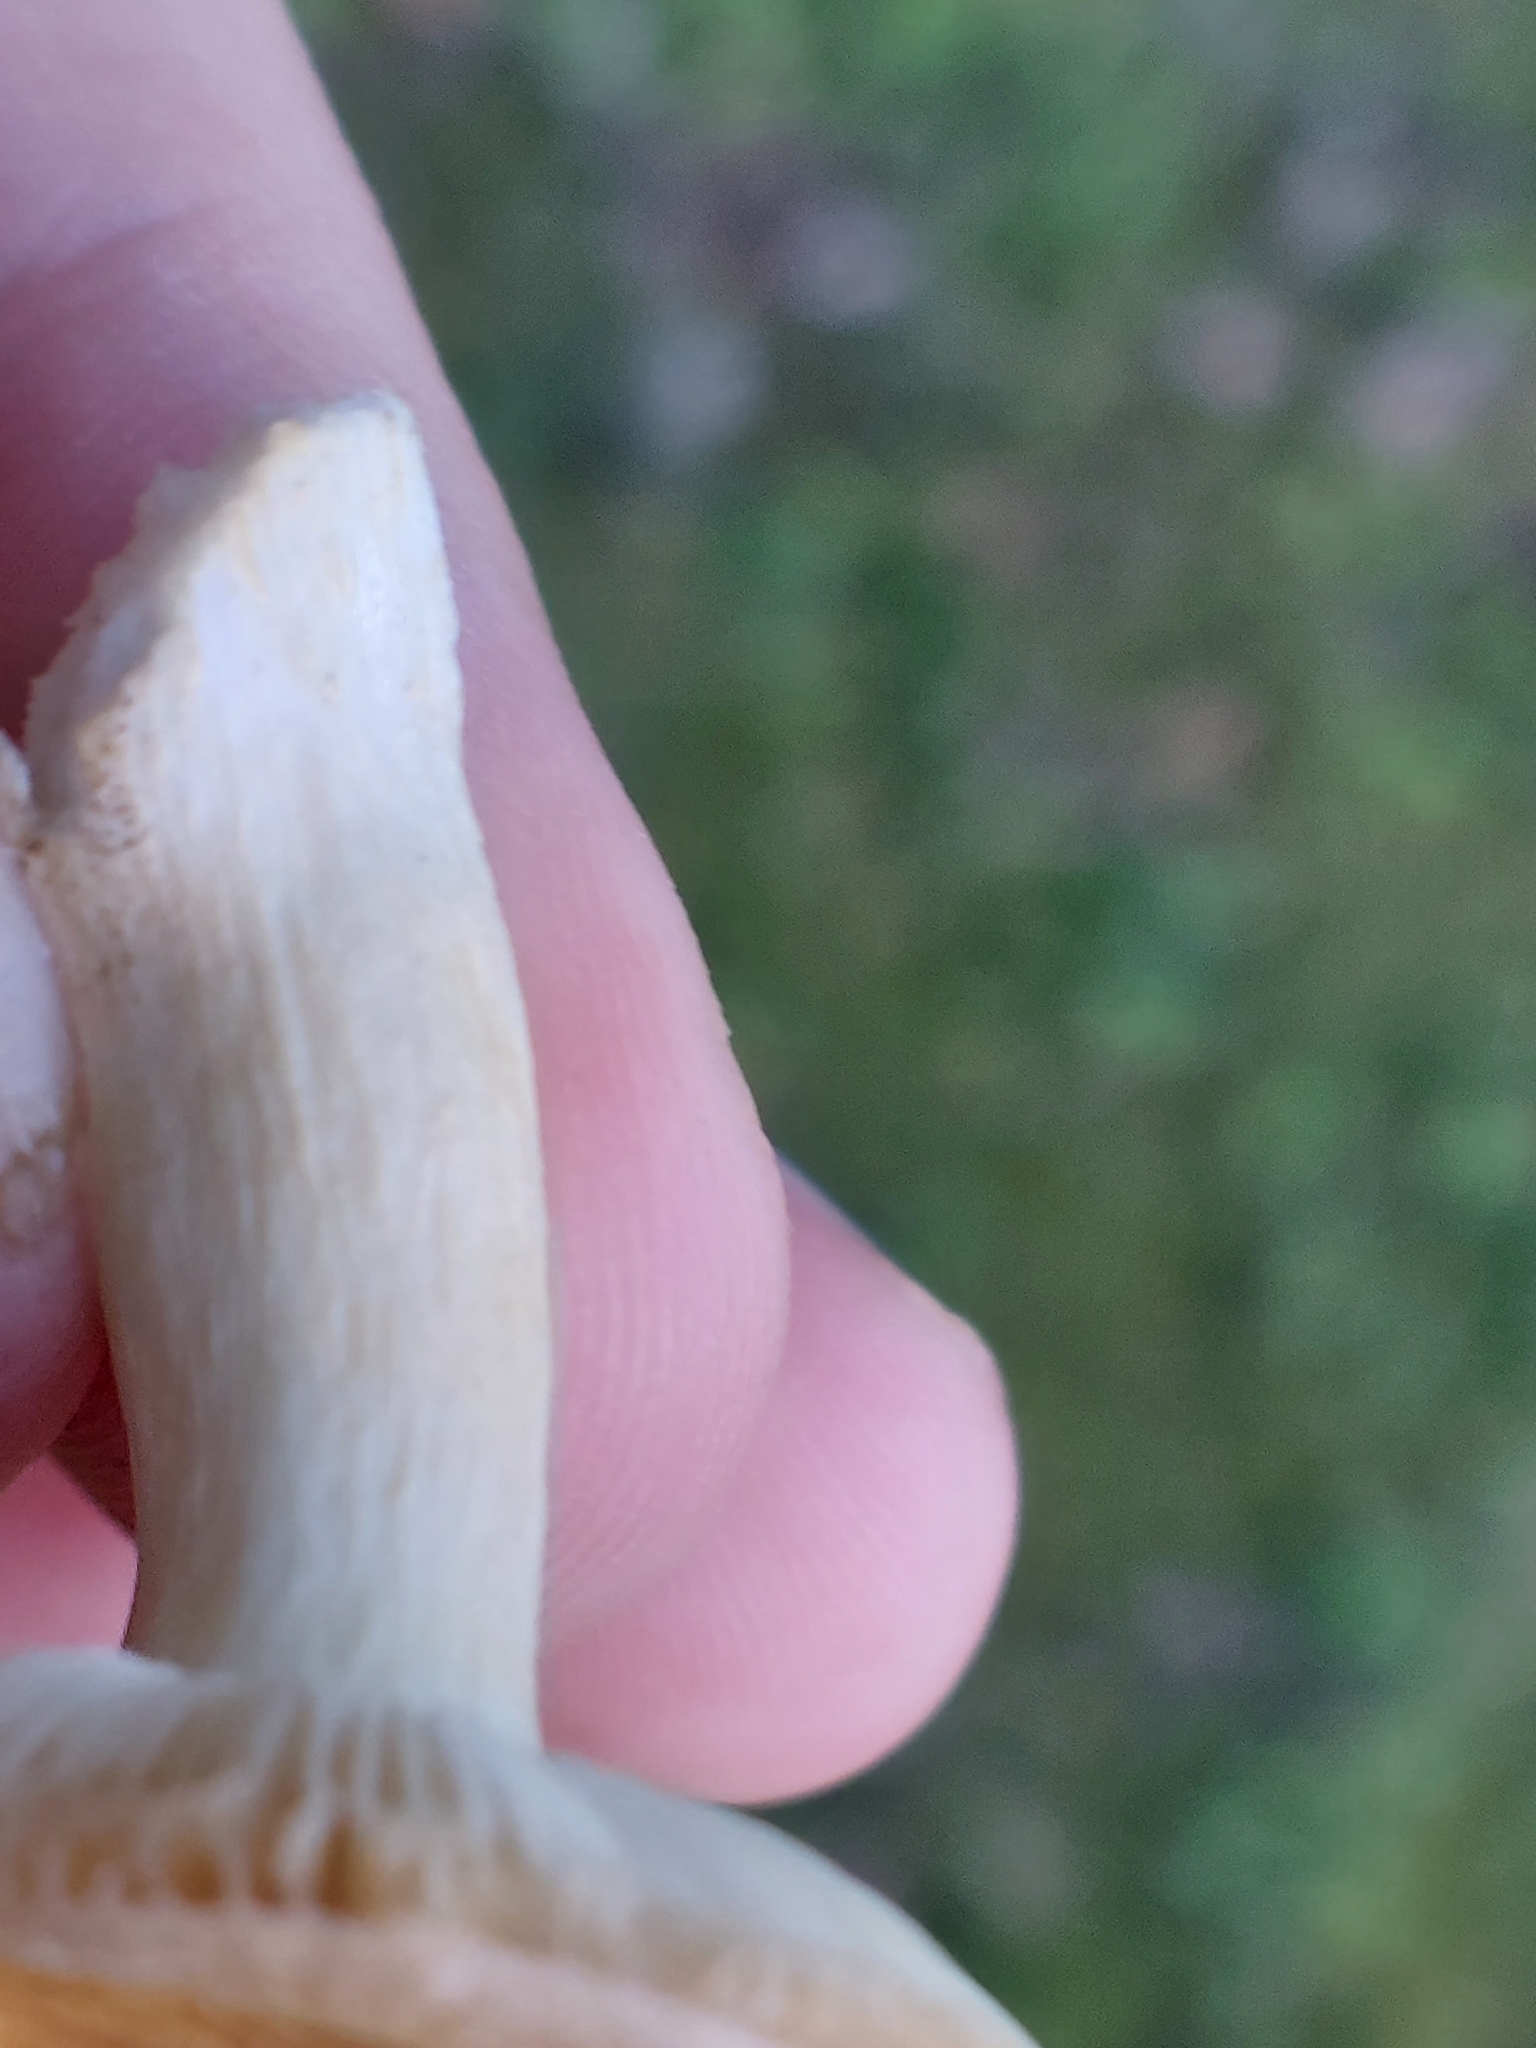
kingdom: Fungi
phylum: Basidiomycota
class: Agaricomycetes
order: Russulales
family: Russulaceae
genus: Russula
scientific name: Russula
